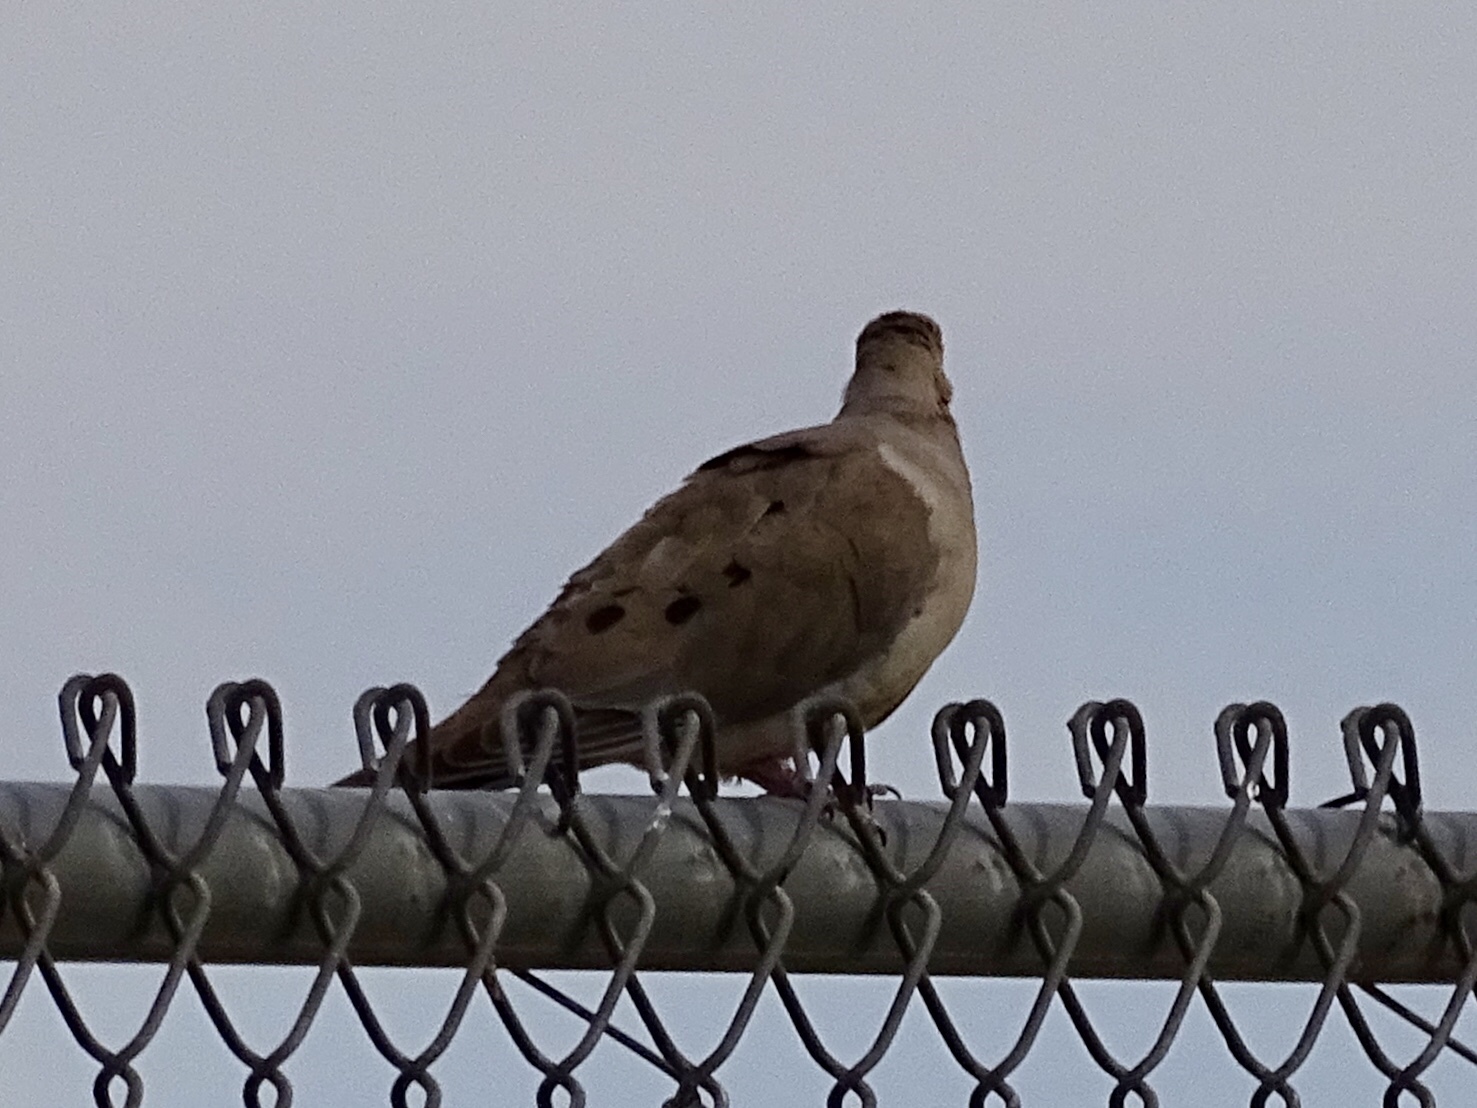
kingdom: Animalia
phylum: Chordata
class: Aves
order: Columbiformes
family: Columbidae
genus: Zenaida
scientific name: Zenaida macroura
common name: Mourning dove
